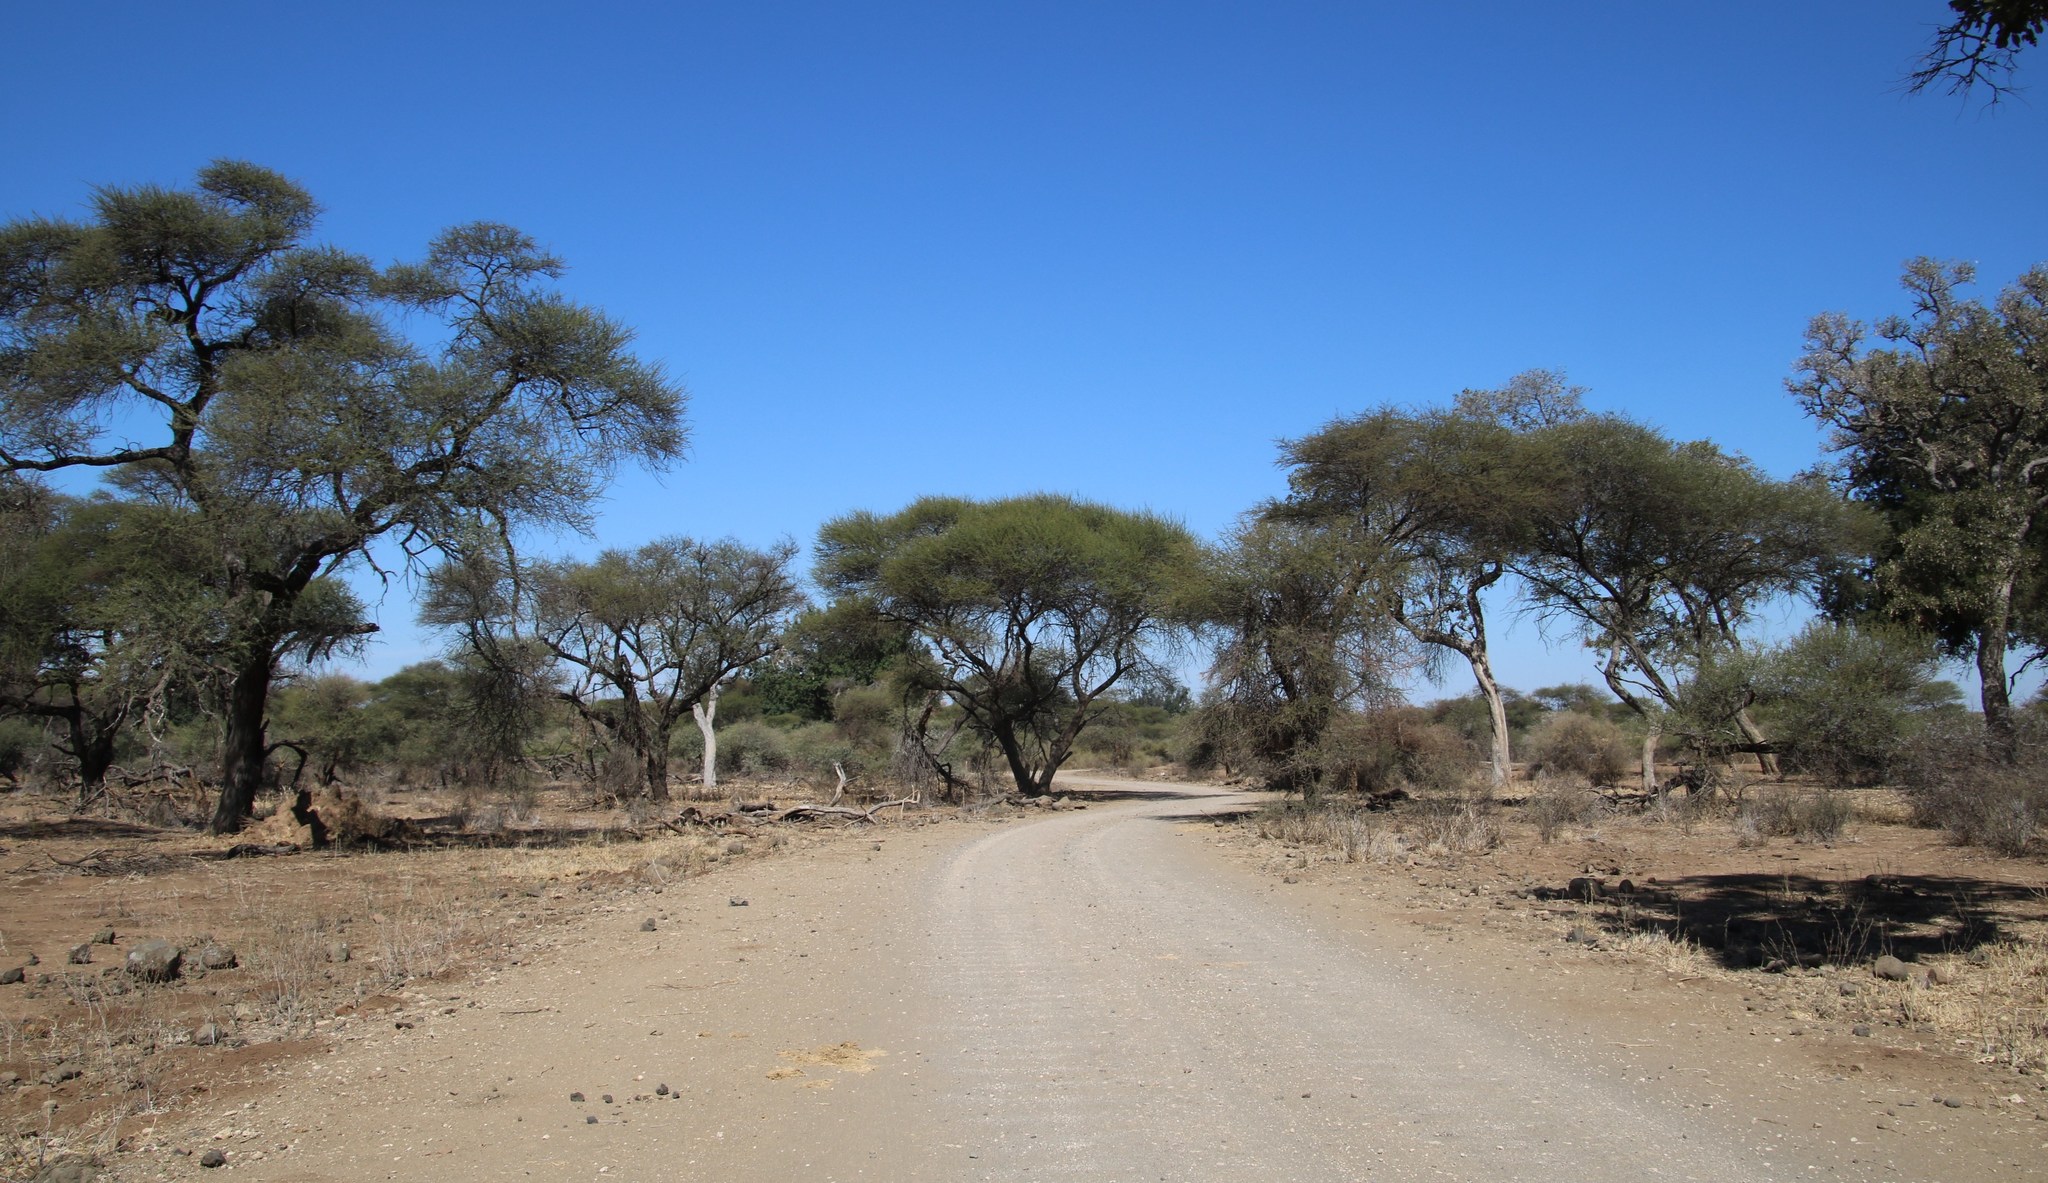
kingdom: Plantae
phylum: Tracheophyta
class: Magnoliopsida
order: Fabales
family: Fabaceae
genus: Vachellia
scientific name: Vachellia tortilis
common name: Umbrella thorn acacia
